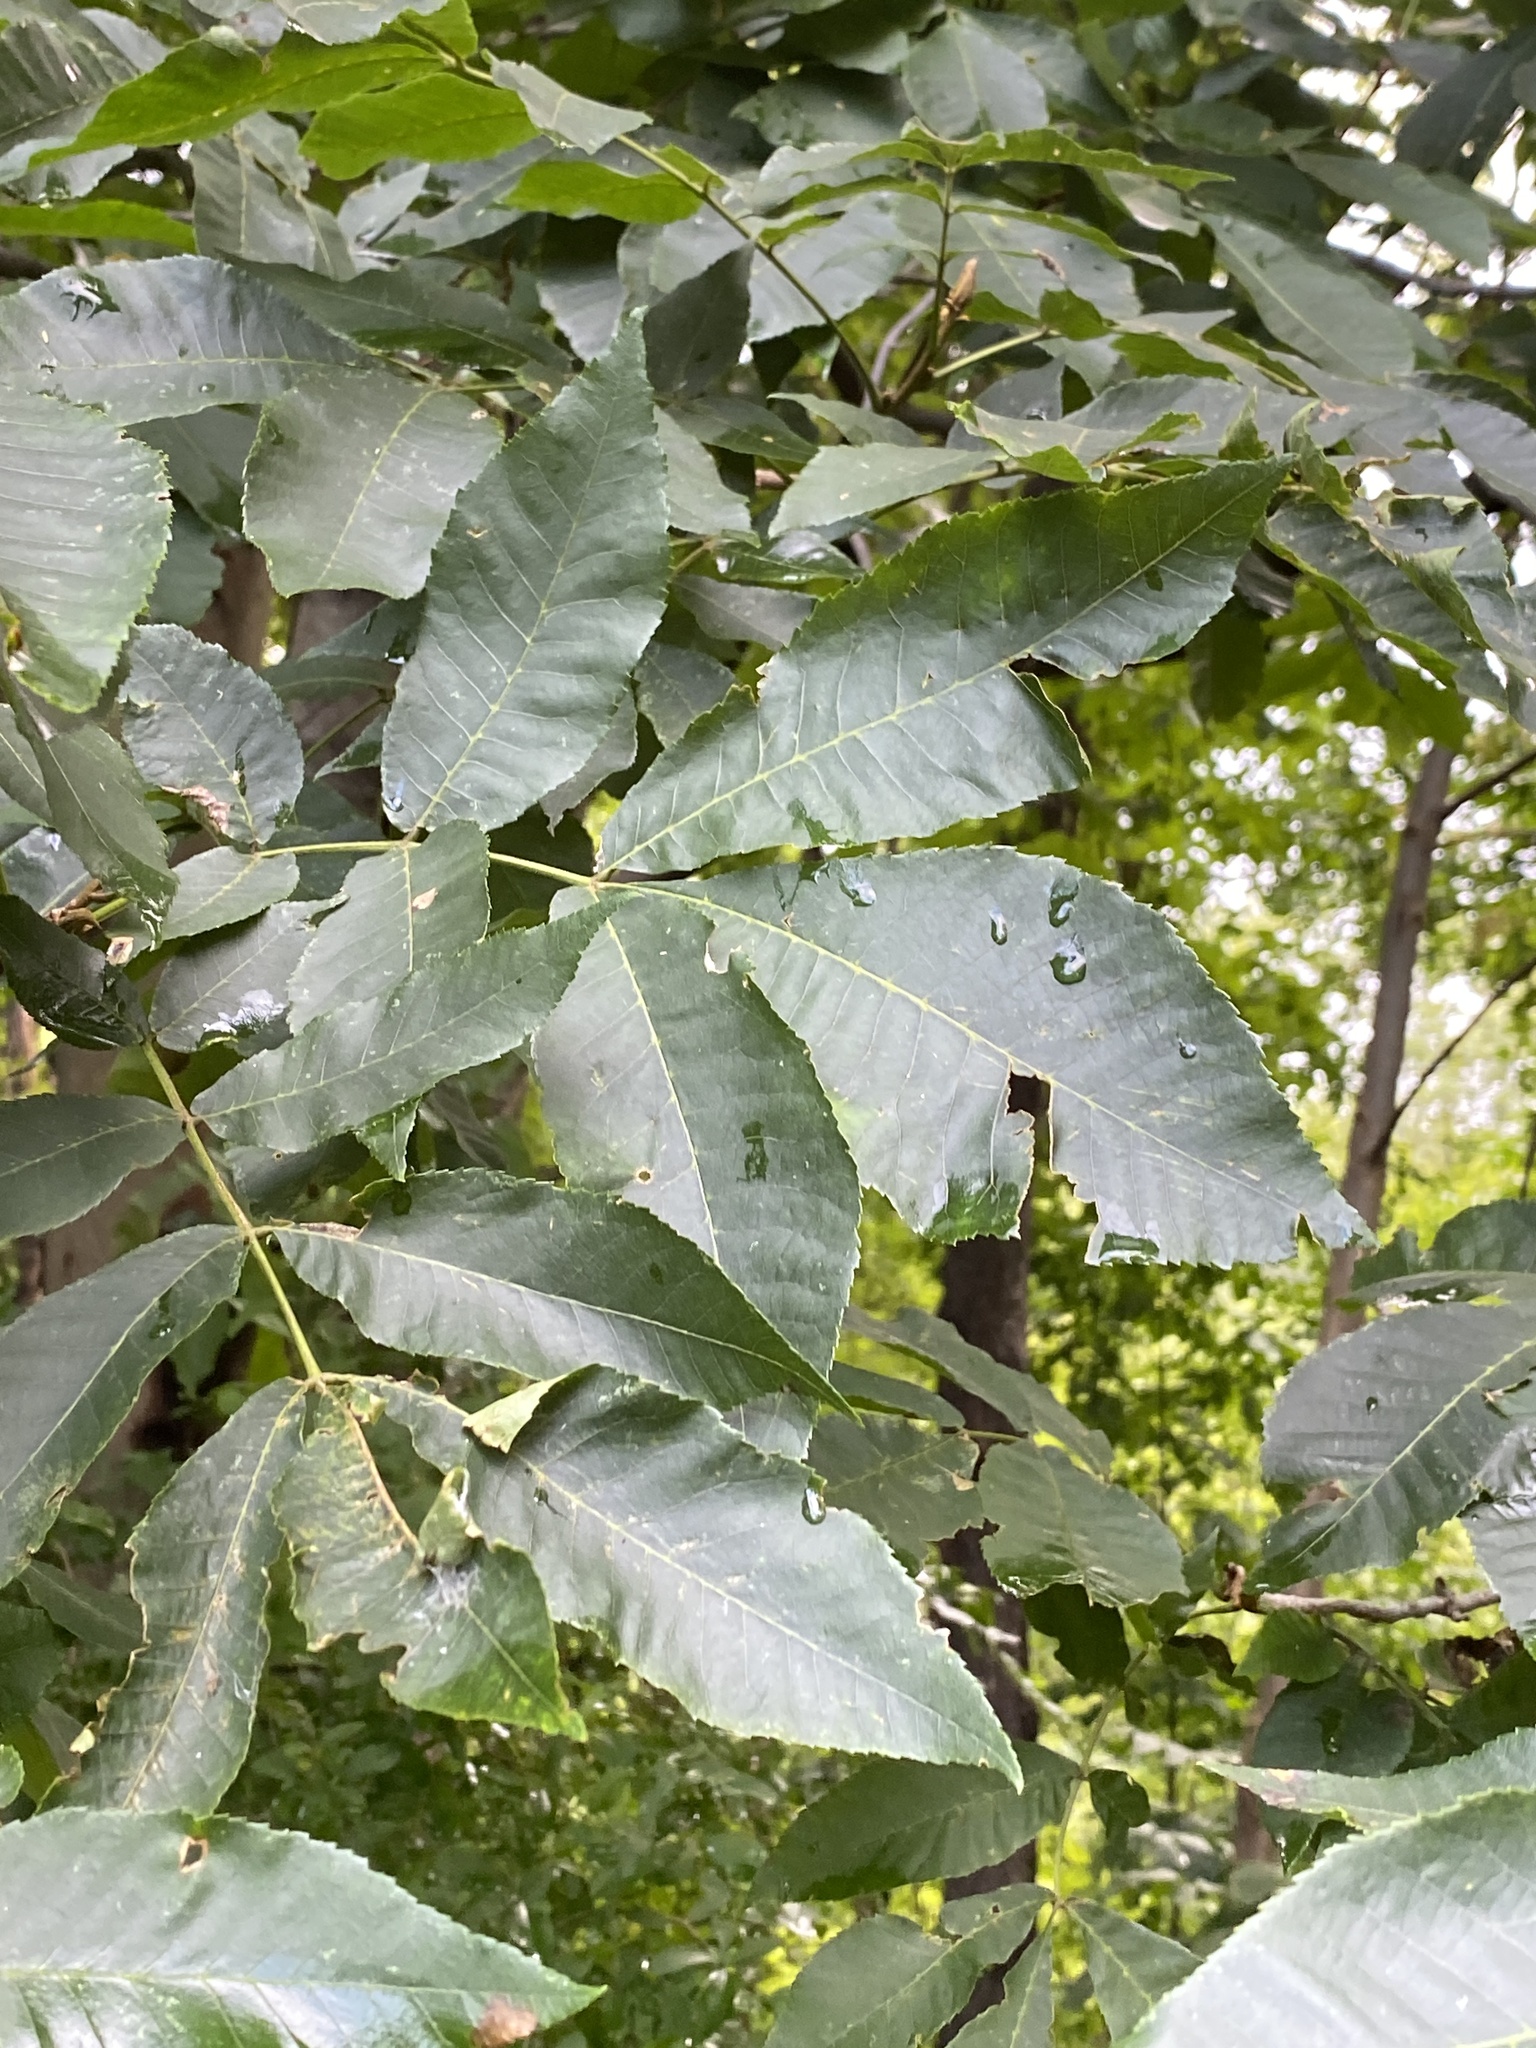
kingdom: Plantae
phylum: Tracheophyta
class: Magnoliopsida
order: Fagales
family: Juglandaceae
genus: Carya
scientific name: Carya cordiformis
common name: Bitternut hickory
